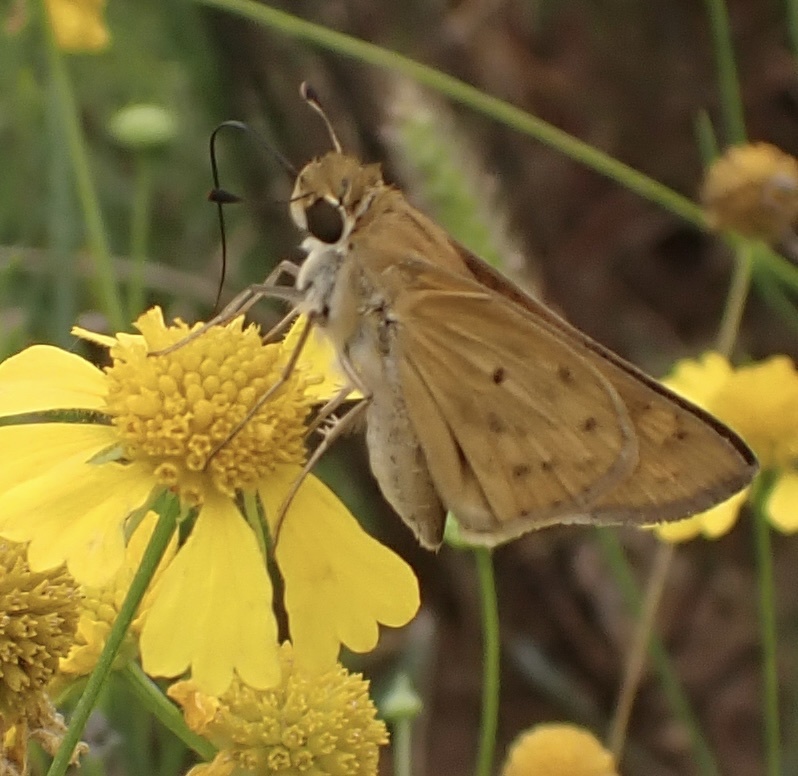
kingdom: Animalia
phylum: Arthropoda
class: Insecta
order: Lepidoptera
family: Hesperiidae
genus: Hylephila
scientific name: Hylephila phyleus
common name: Fiery skipper
